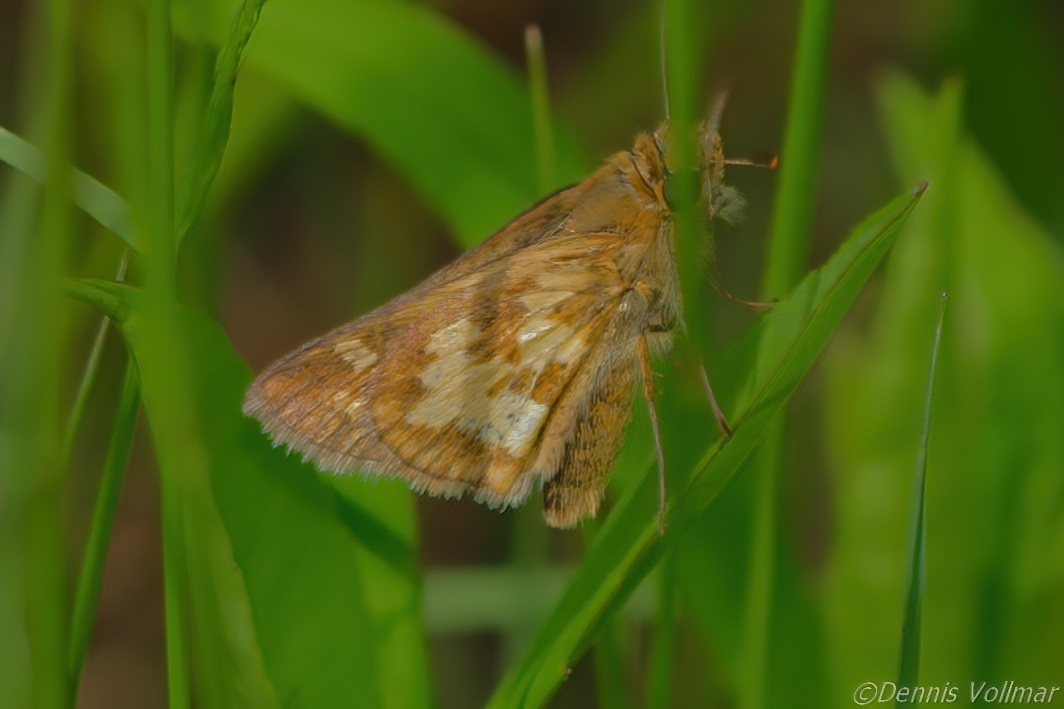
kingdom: Animalia
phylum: Arthropoda
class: Insecta
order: Lepidoptera
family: Hesperiidae
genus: Polites
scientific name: Polites coras
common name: Peck's skipper
